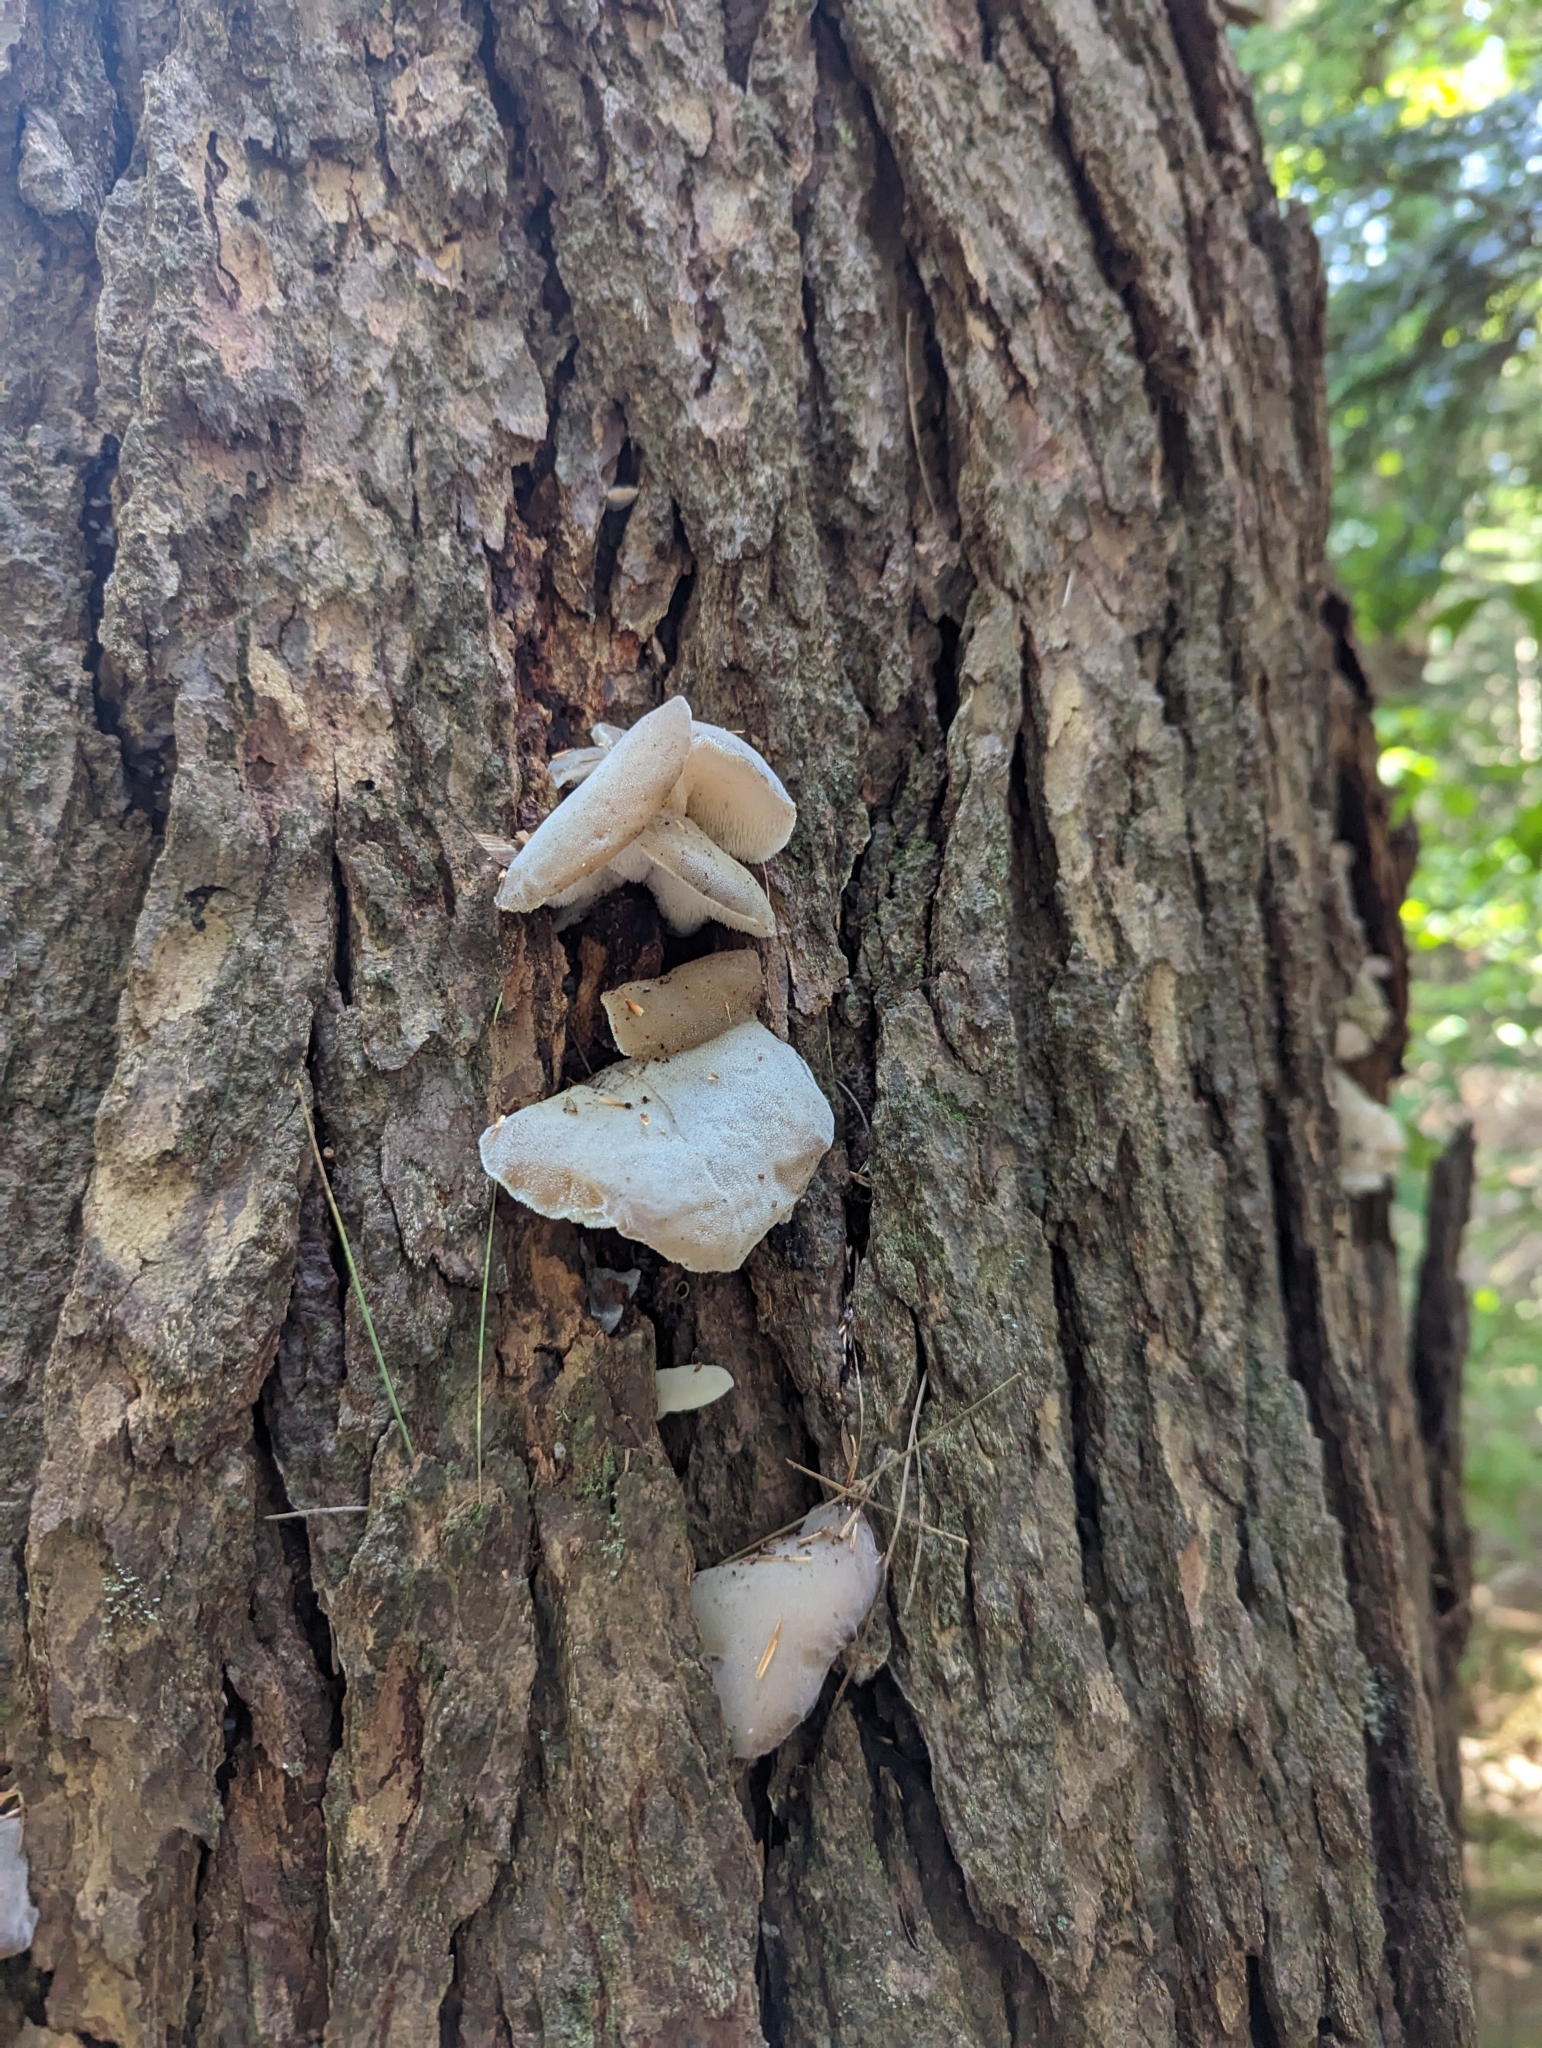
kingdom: Fungi
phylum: Basidiomycota
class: Agaricomycetes
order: Auriculariales
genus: Pseudohydnum
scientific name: Pseudohydnum gelatinosum
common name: Jelly tongue
